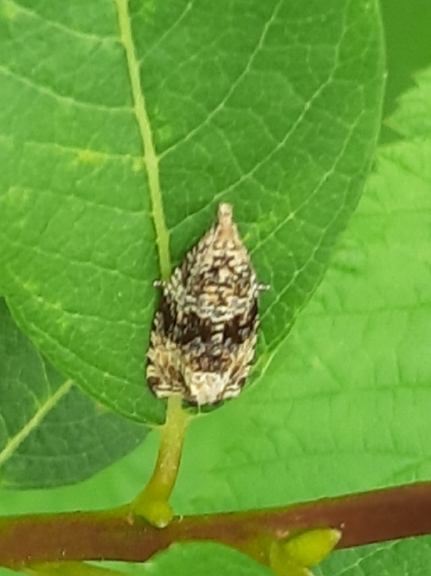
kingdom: Animalia
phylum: Arthropoda
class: Insecta
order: Lepidoptera
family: Tortricidae
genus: Syricoris
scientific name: Syricoris lacunana
